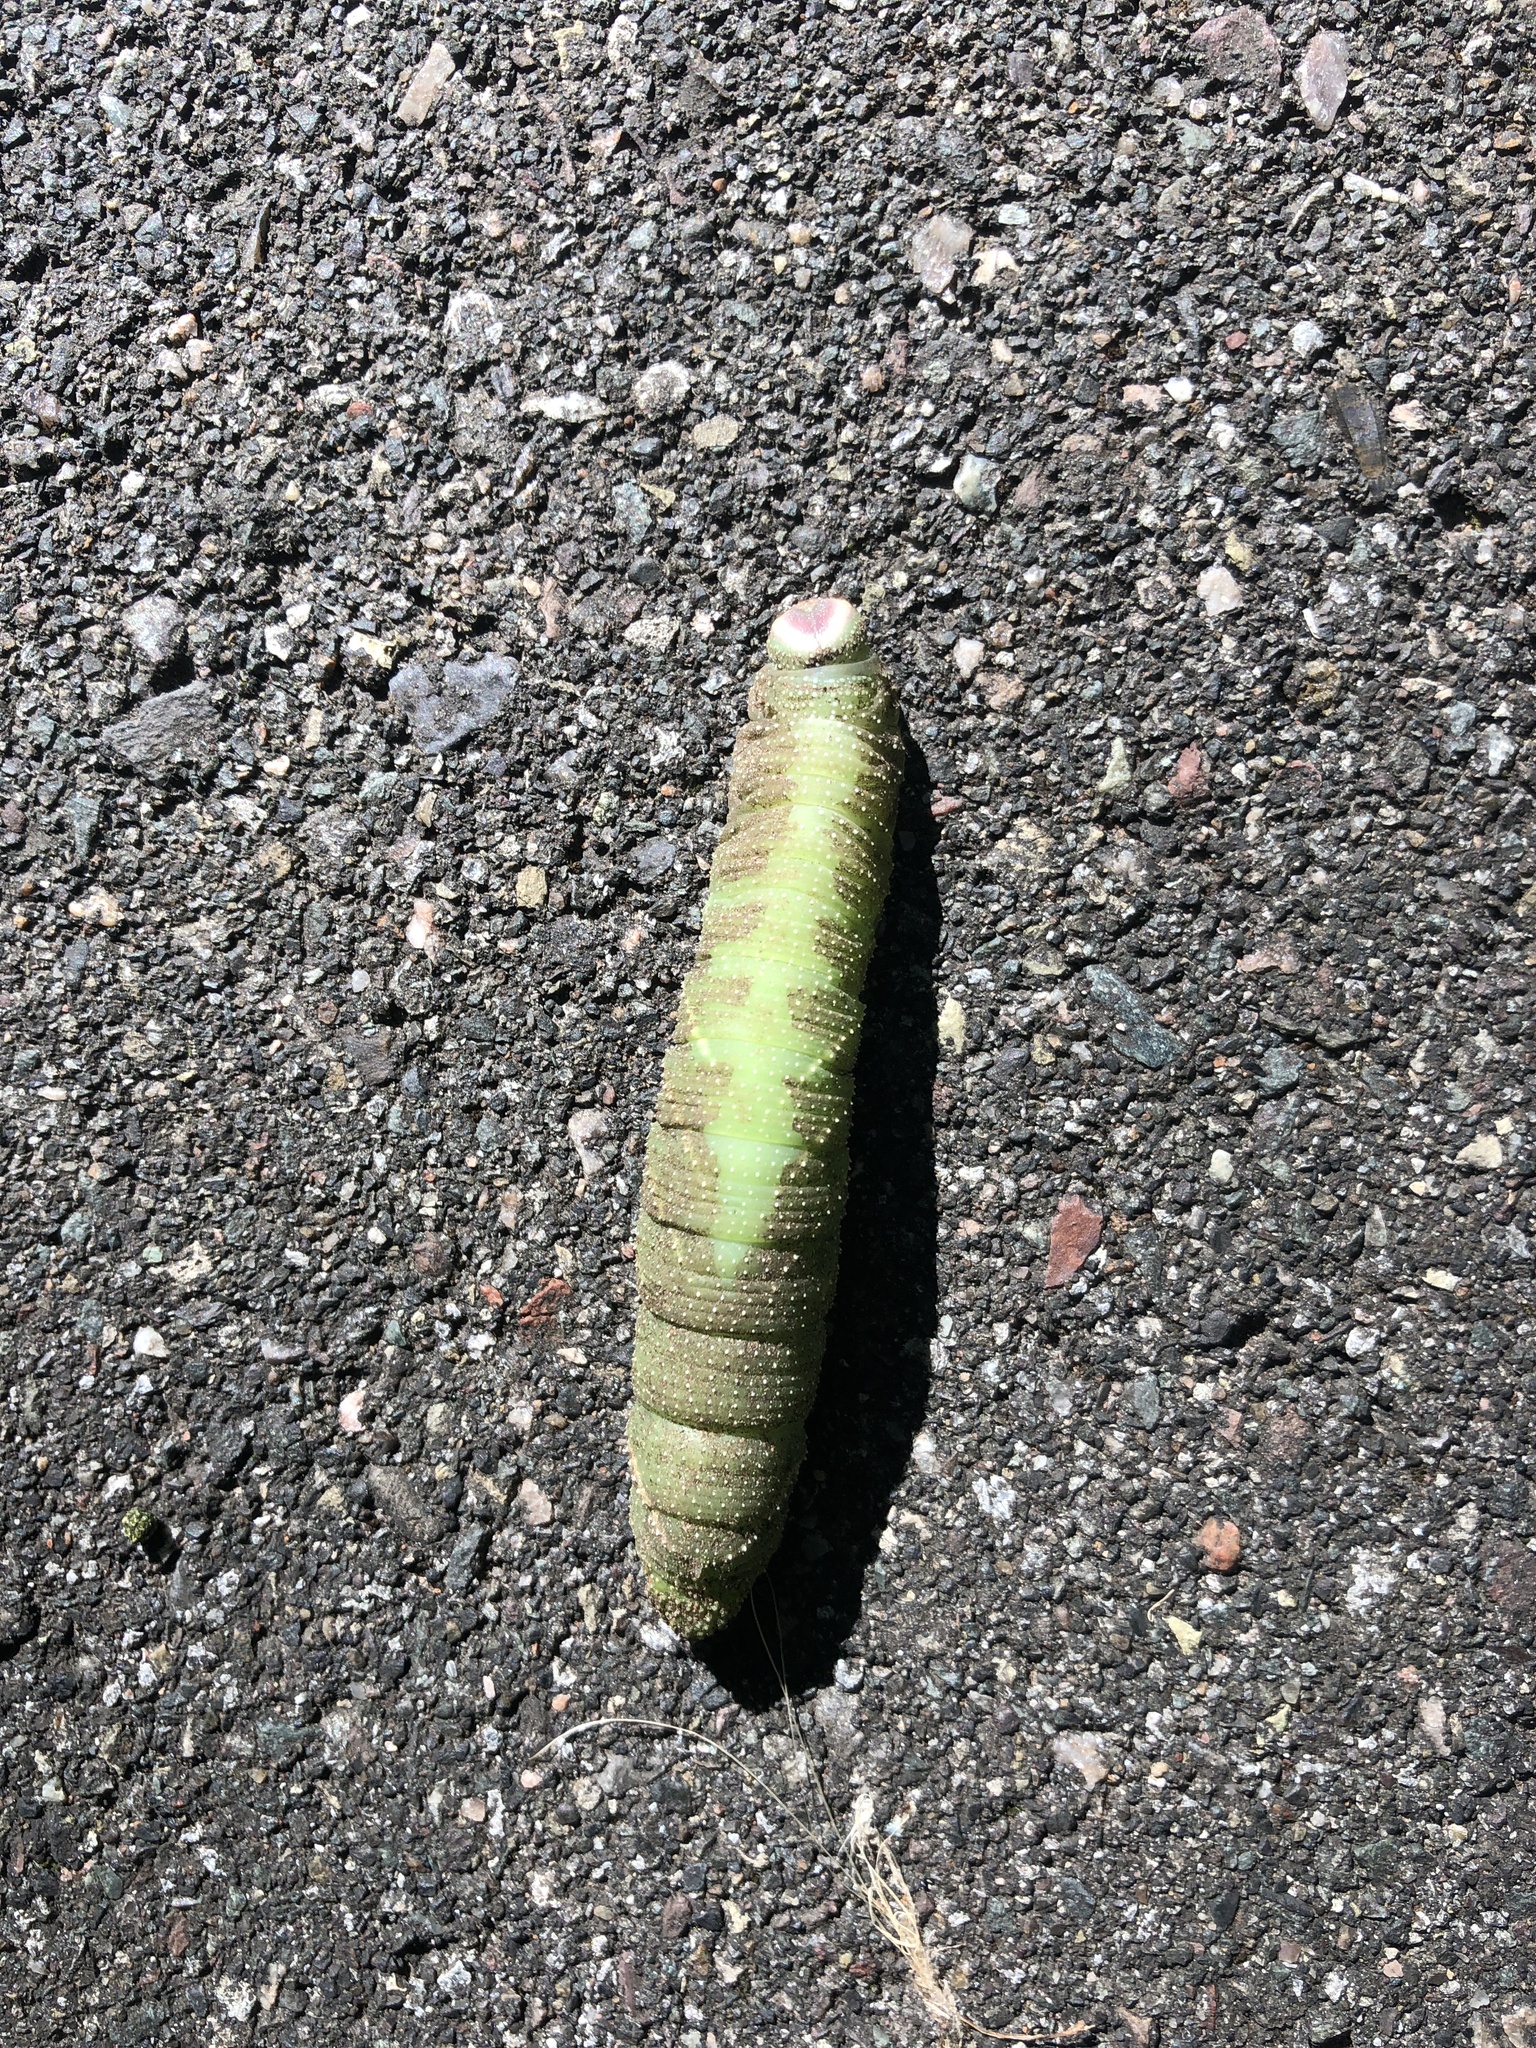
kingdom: Animalia
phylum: Arthropoda
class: Insecta
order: Lepidoptera
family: Sphingidae
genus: Pachysphinx
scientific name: Pachysphinx modesta
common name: Big poplar sphinx
